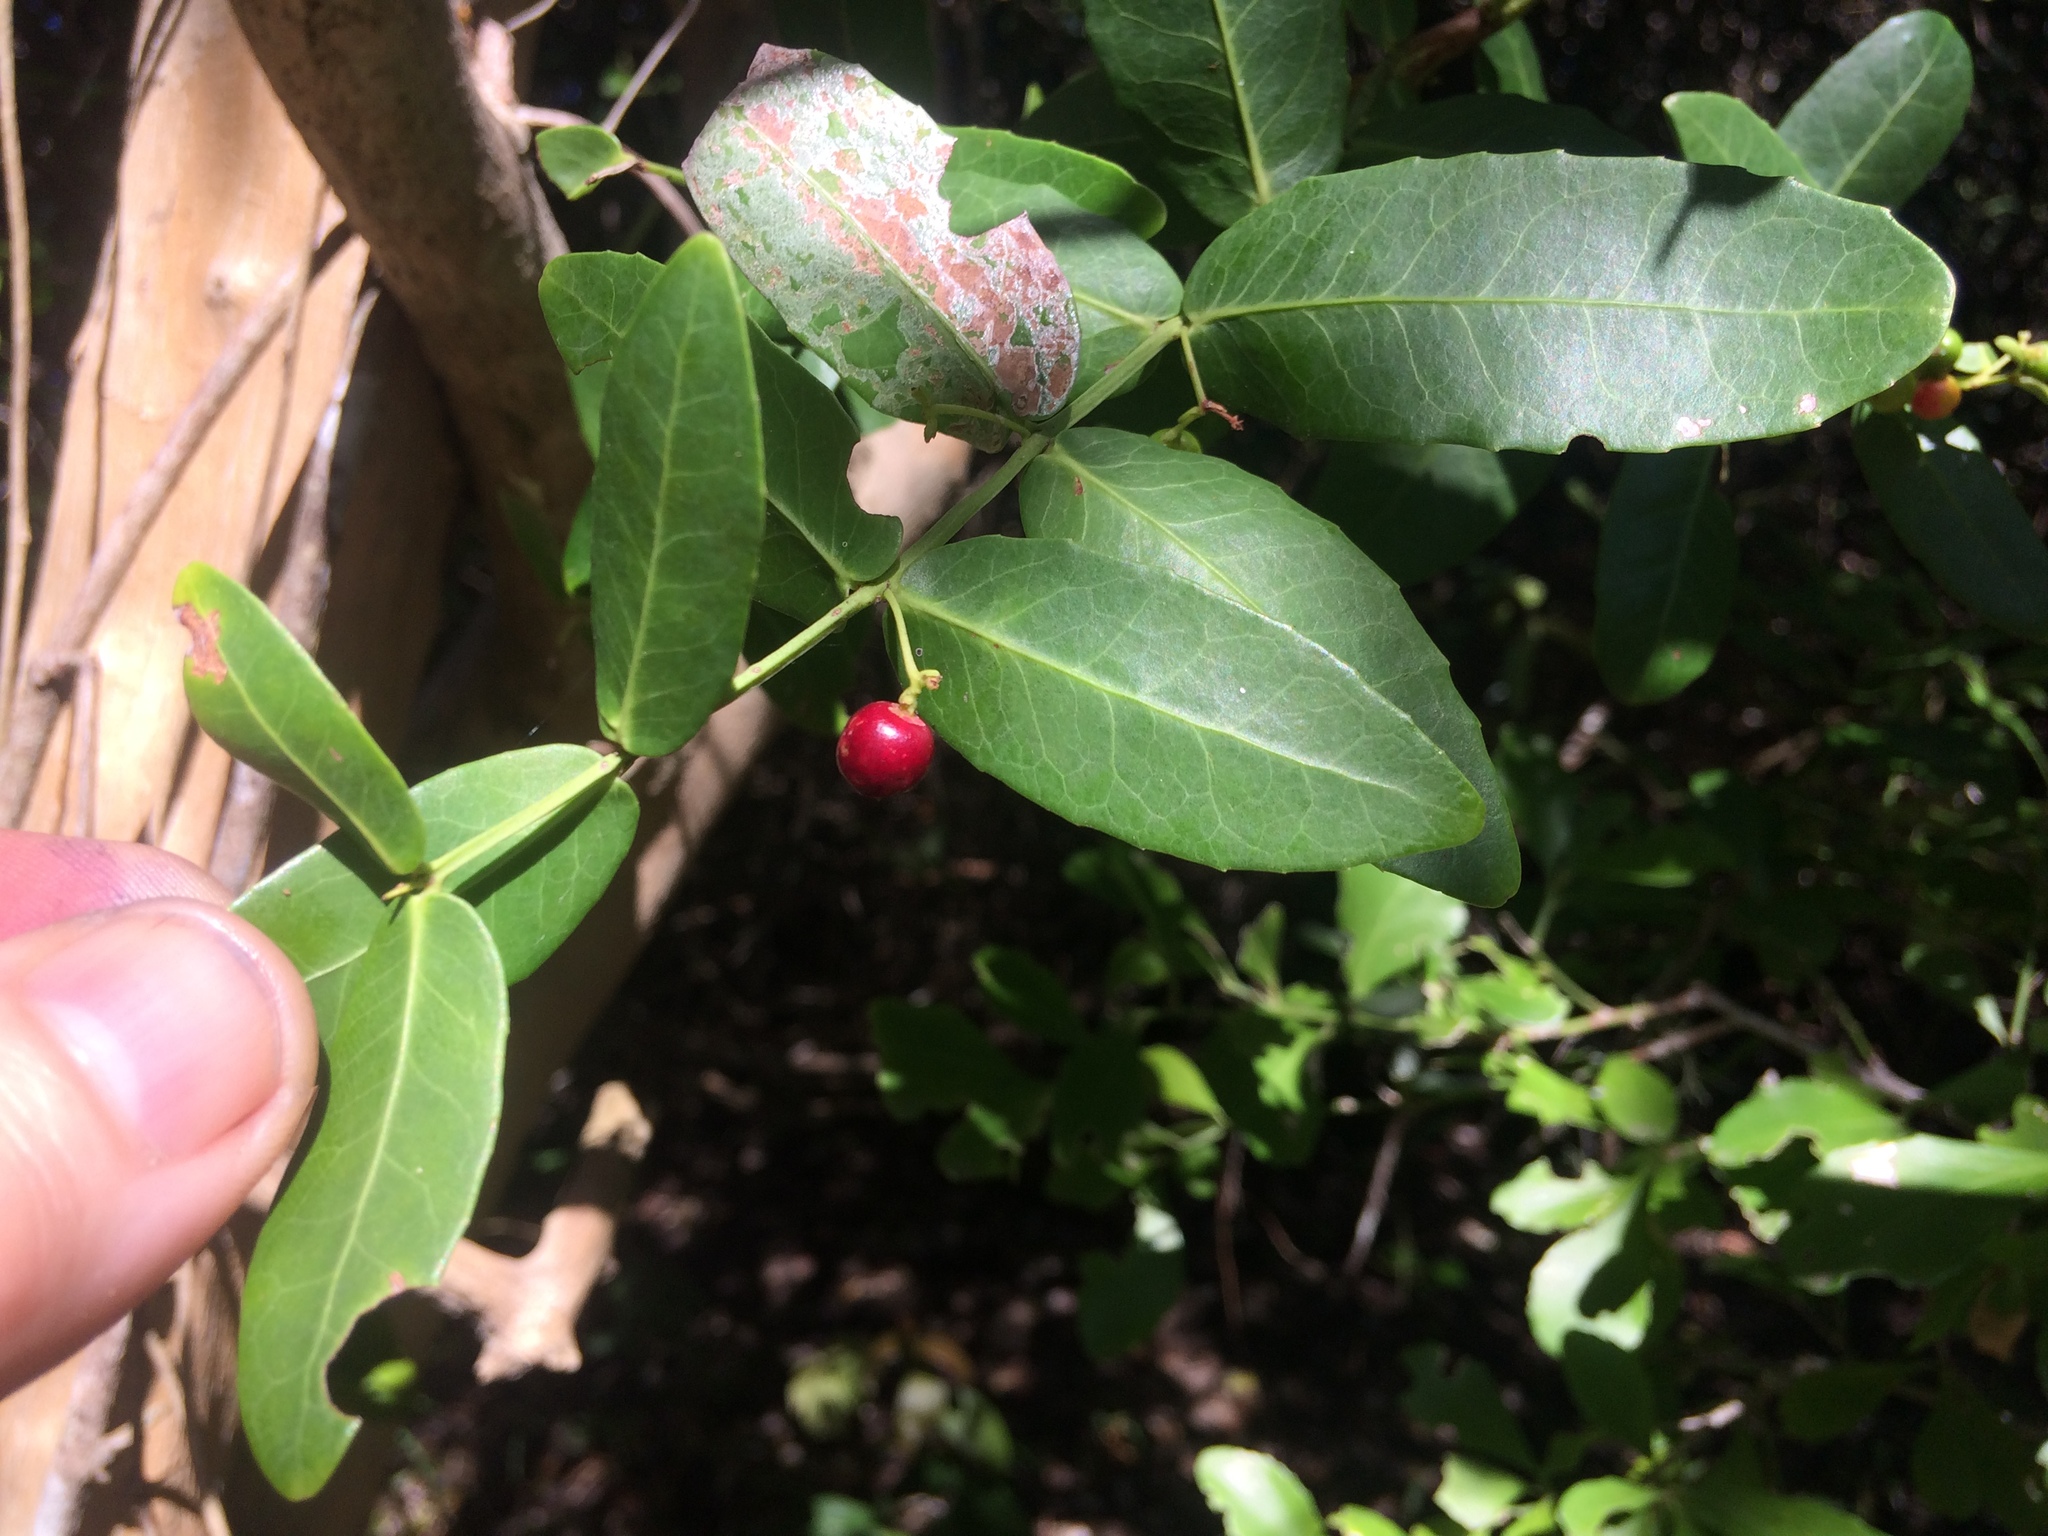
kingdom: Plantae
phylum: Tracheophyta
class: Magnoliopsida
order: Celastrales
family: Celastraceae
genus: Lauridia
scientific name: Lauridia tetragona
